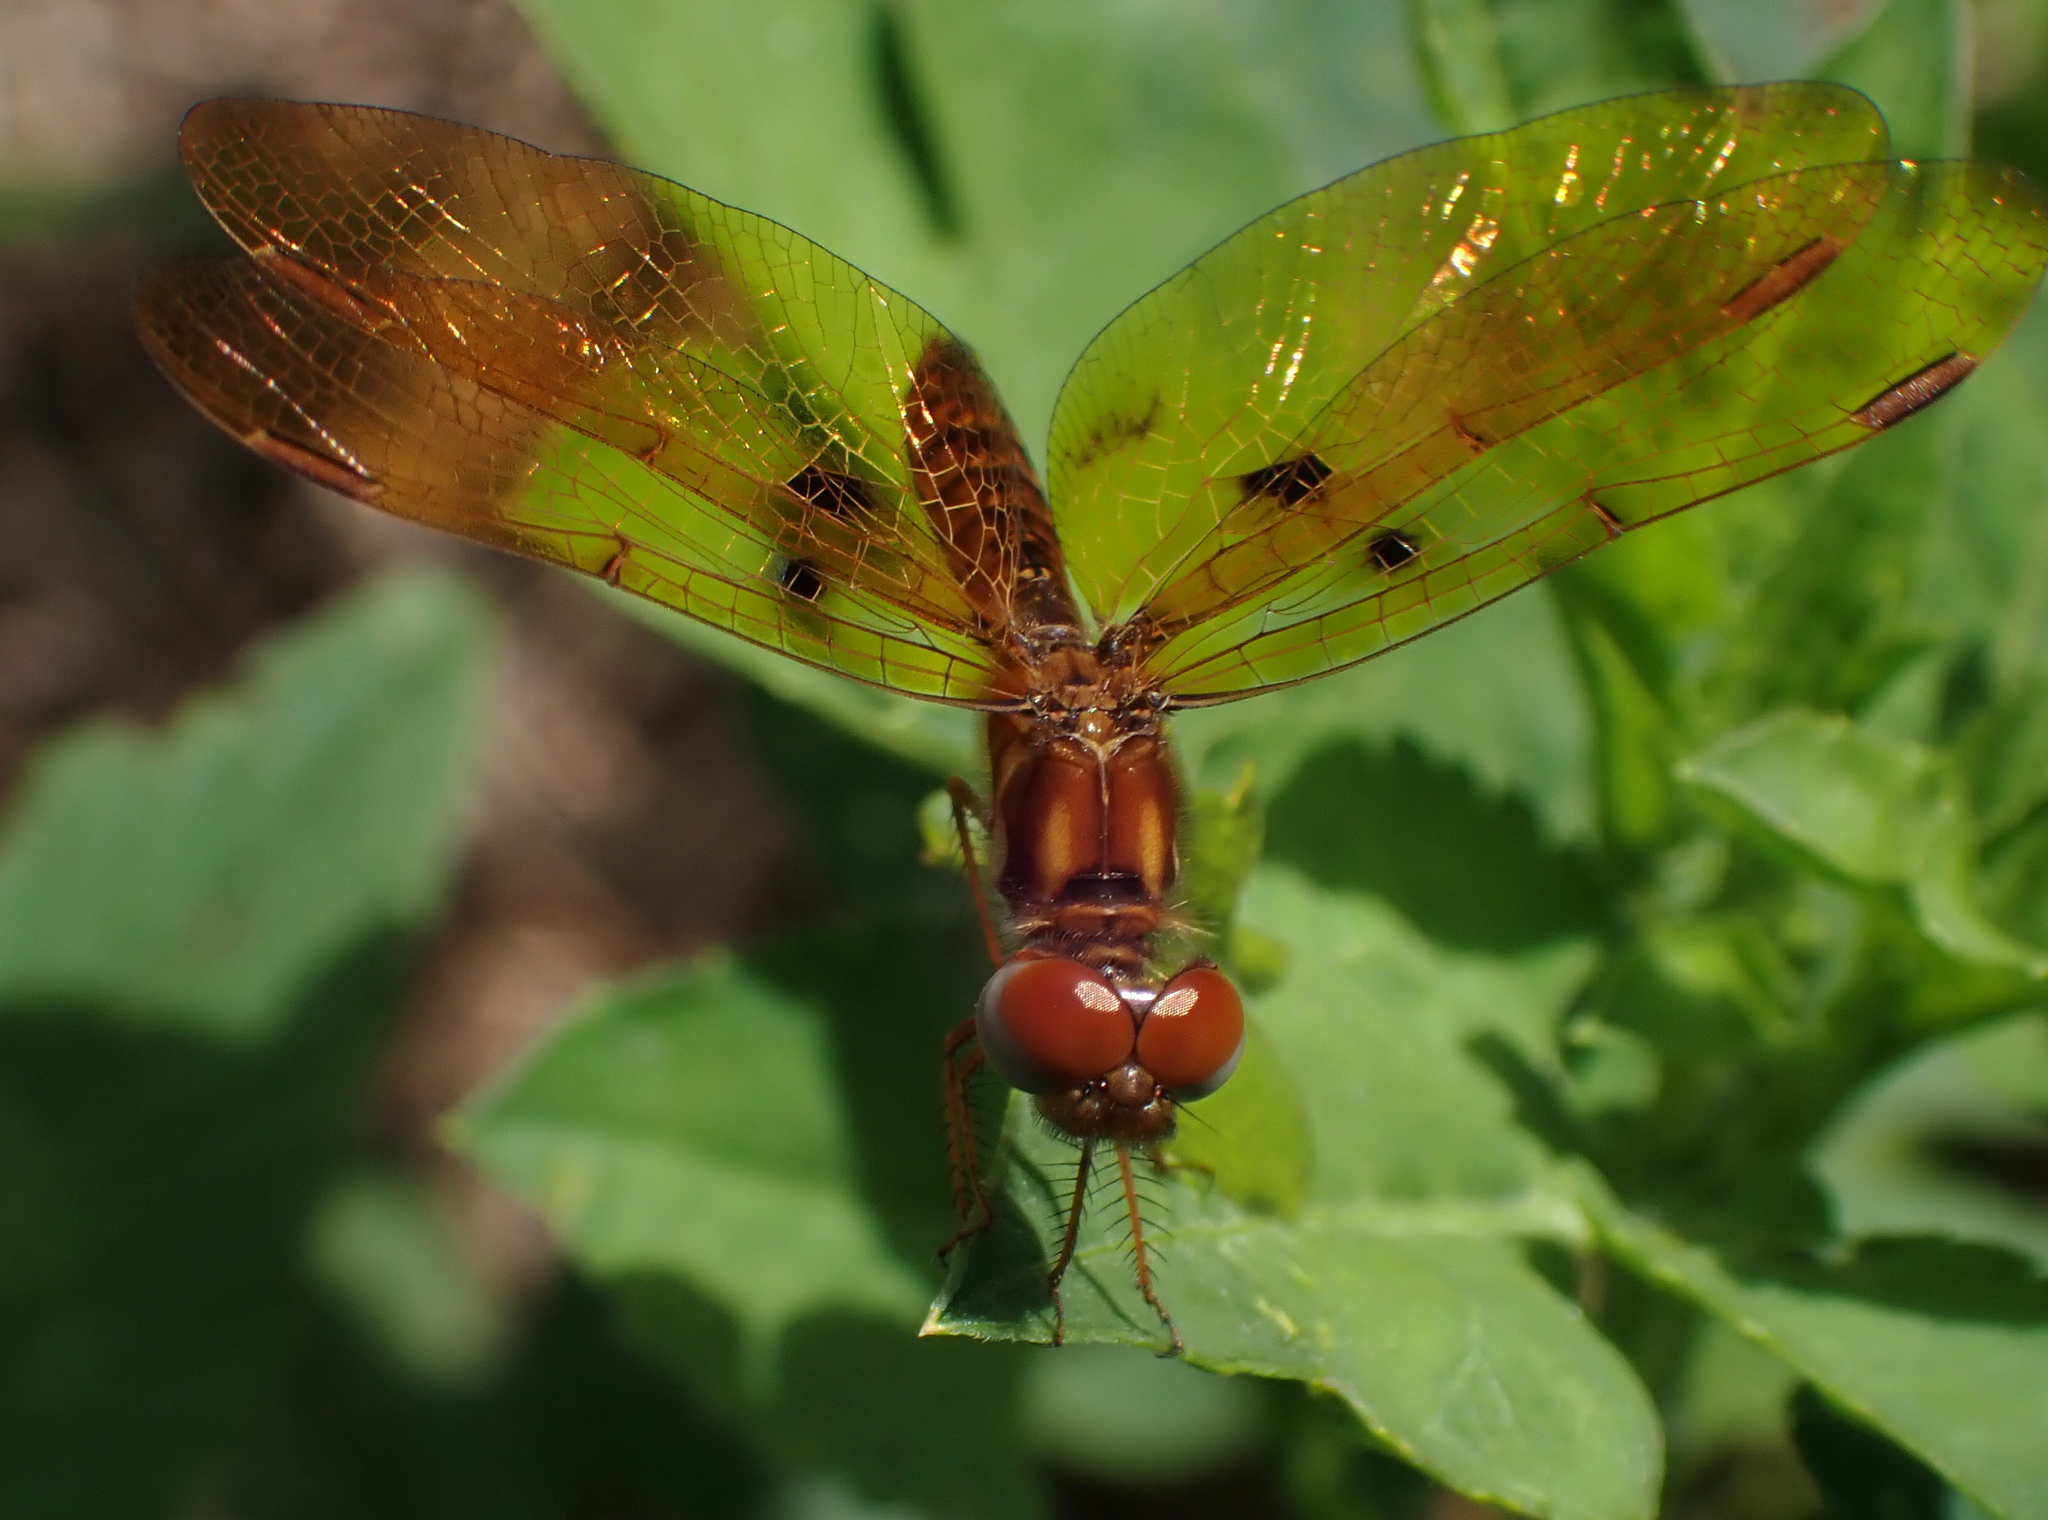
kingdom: Animalia
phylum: Arthropoda
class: Insecta
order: Odonata
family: Libellulidae
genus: Perithemis
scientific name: Perithemis tenera
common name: Eastern amberwing
